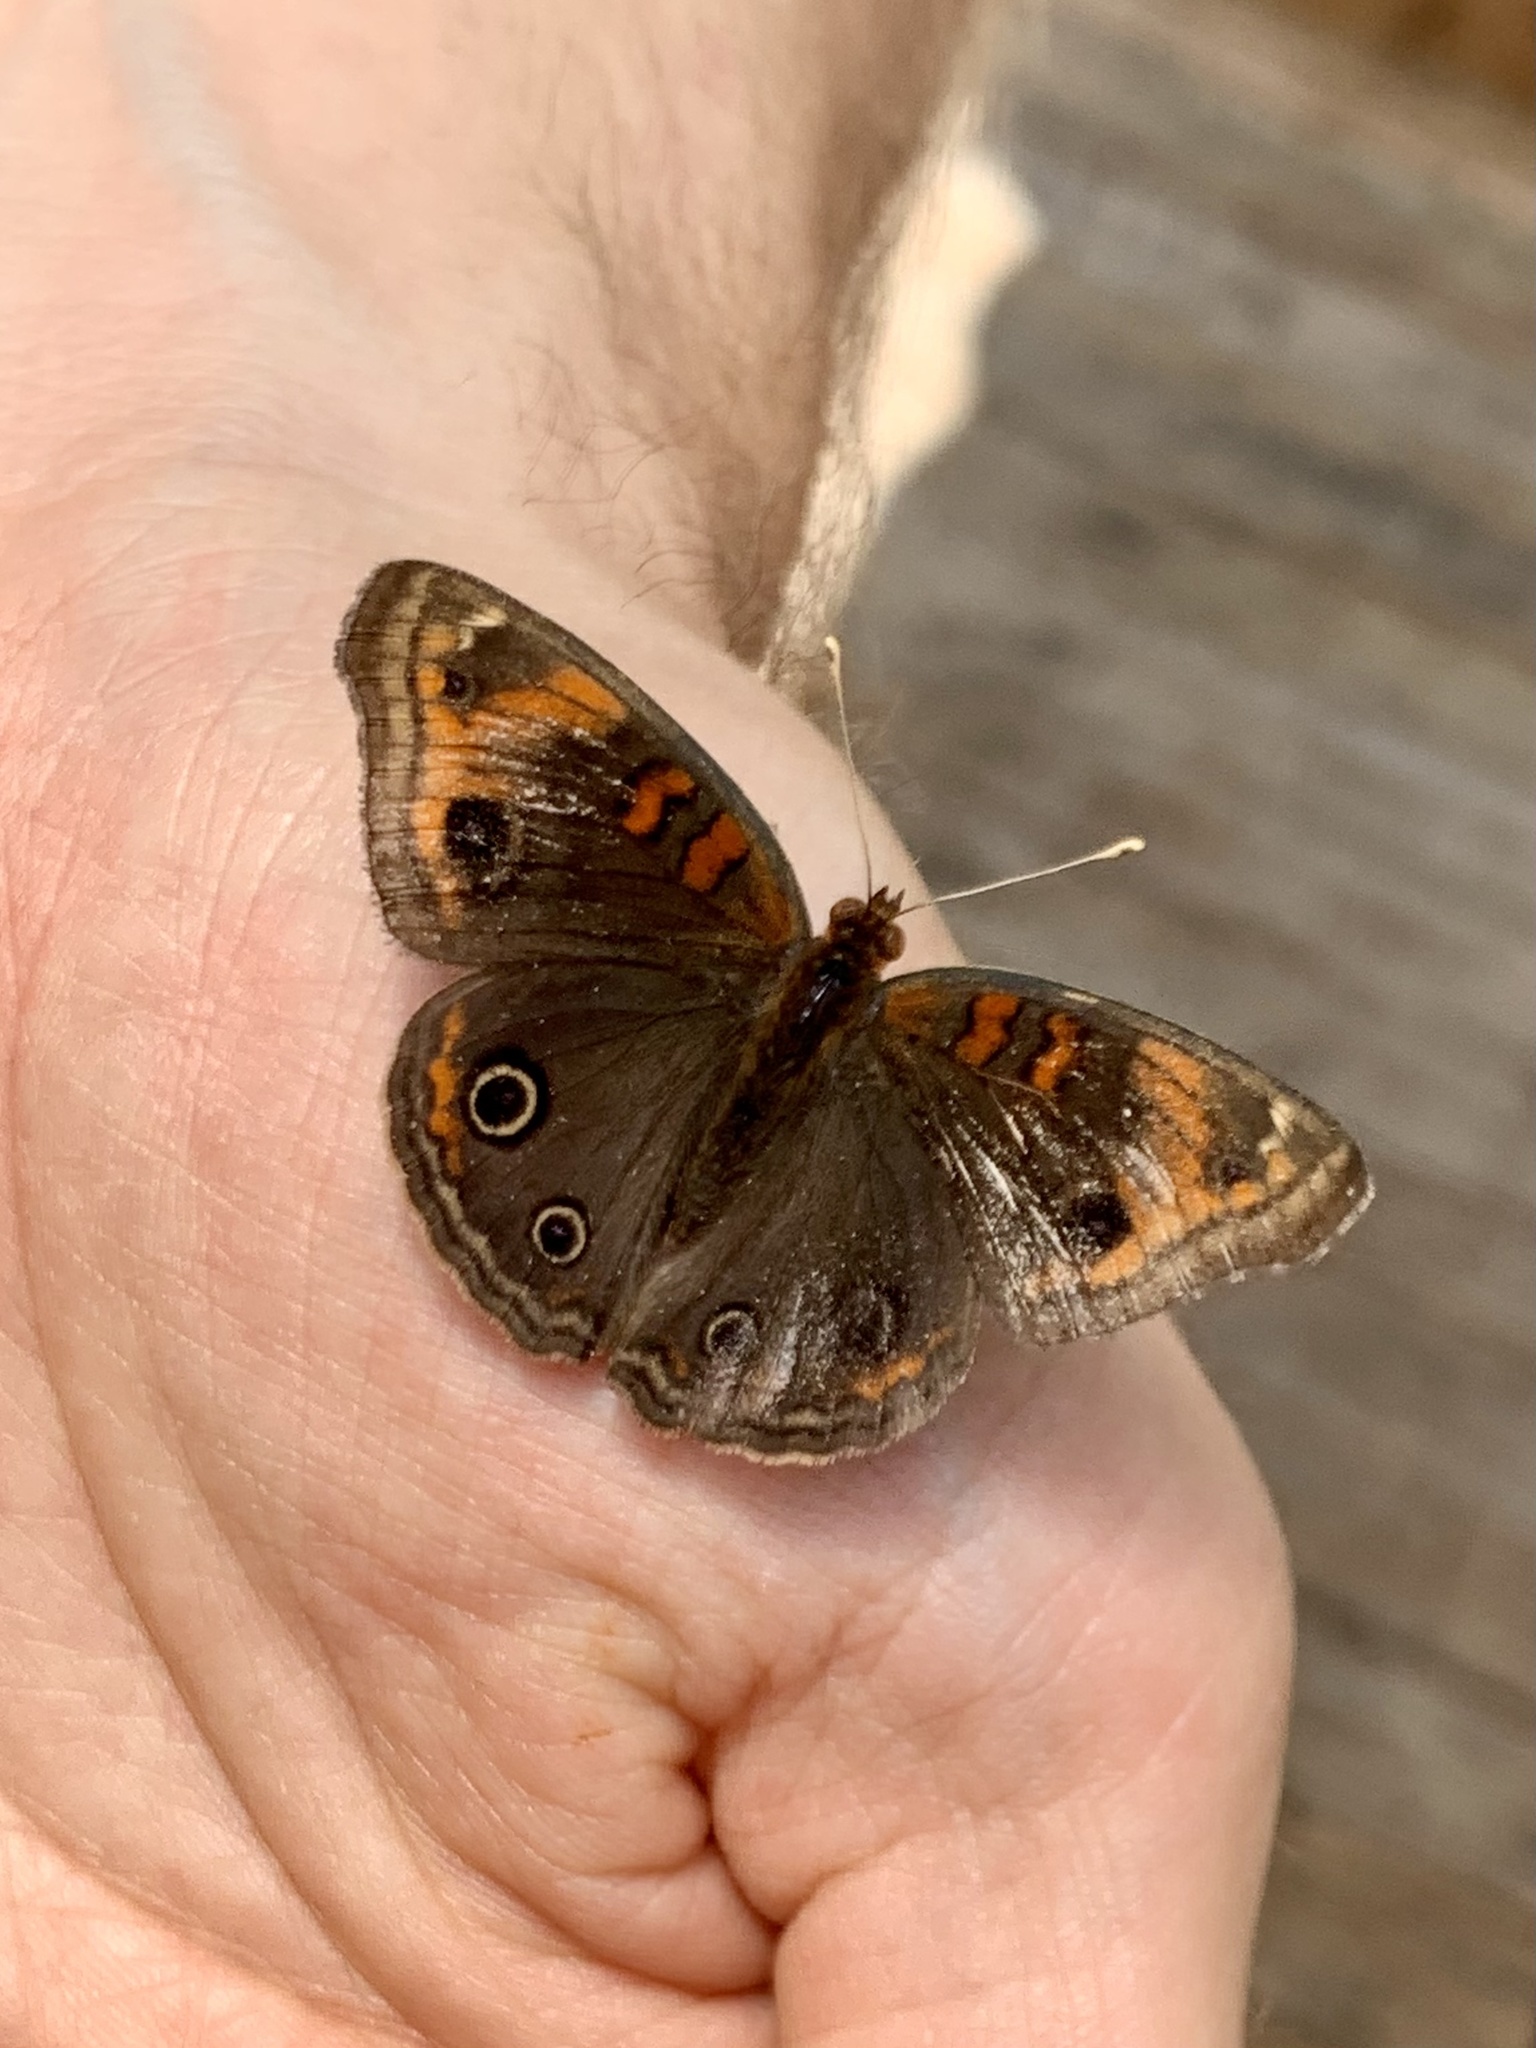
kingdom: Animalia
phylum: Arthropoda
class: Insecta
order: Lepidoptera
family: Nymphalidae
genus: Junonia
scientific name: Junonia lavinia
